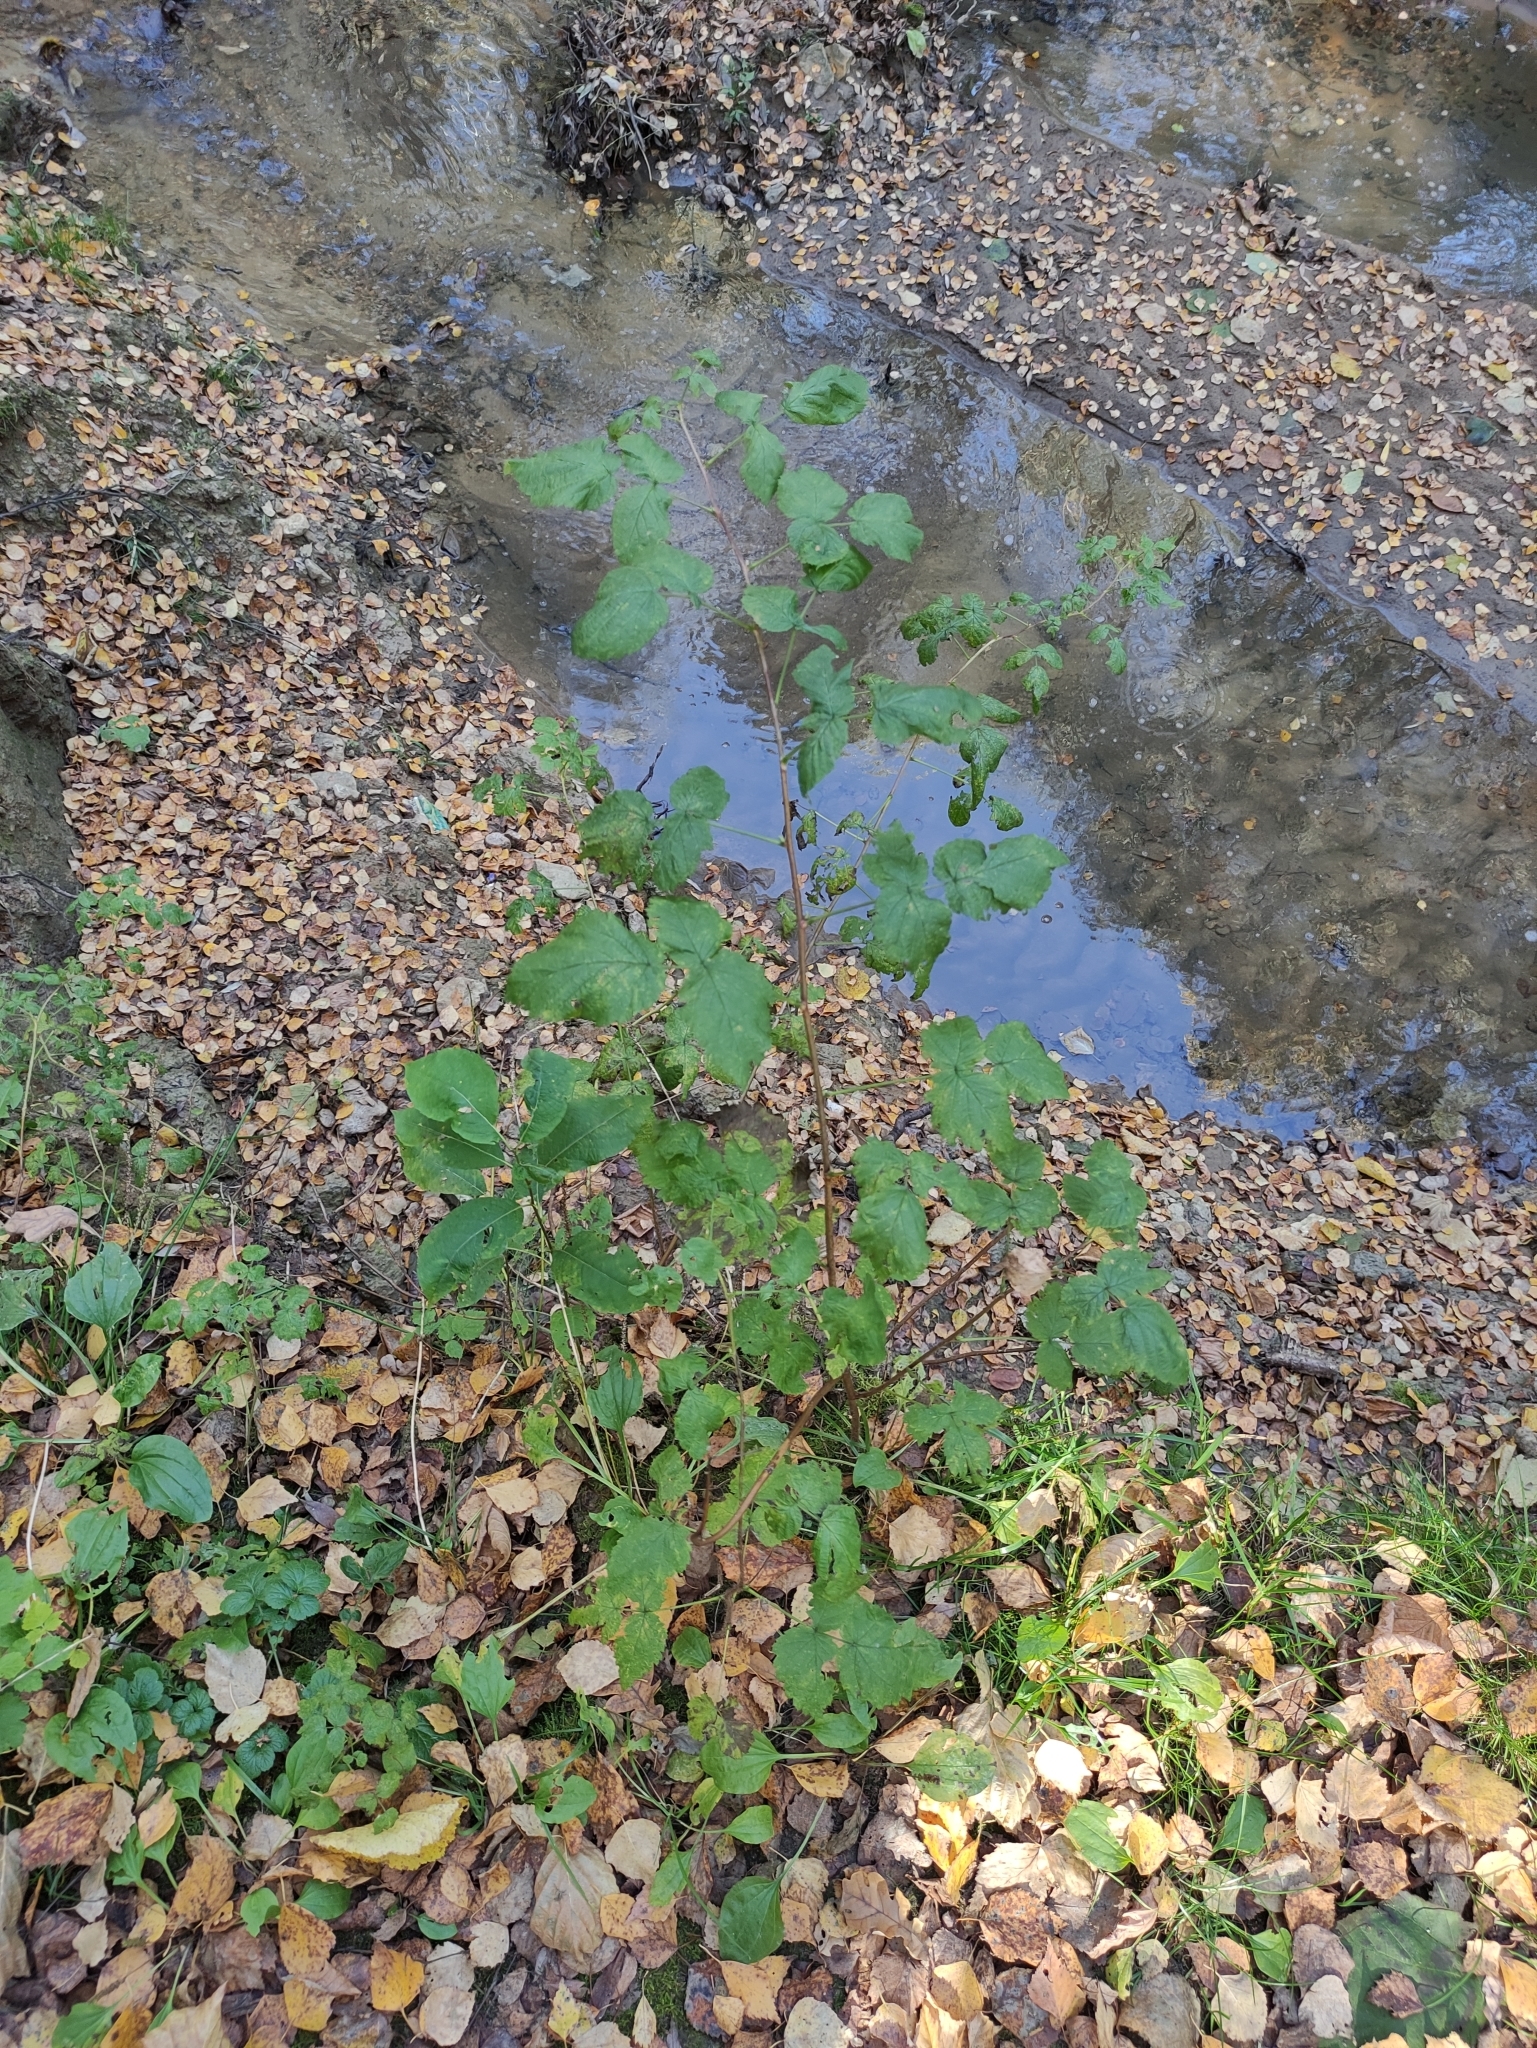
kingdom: Plantae
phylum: Tracheophyta
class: Magnoliopsida
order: Rosales
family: Rosaceae
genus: Rubus
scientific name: Rubus idaeus
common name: Raspberry
